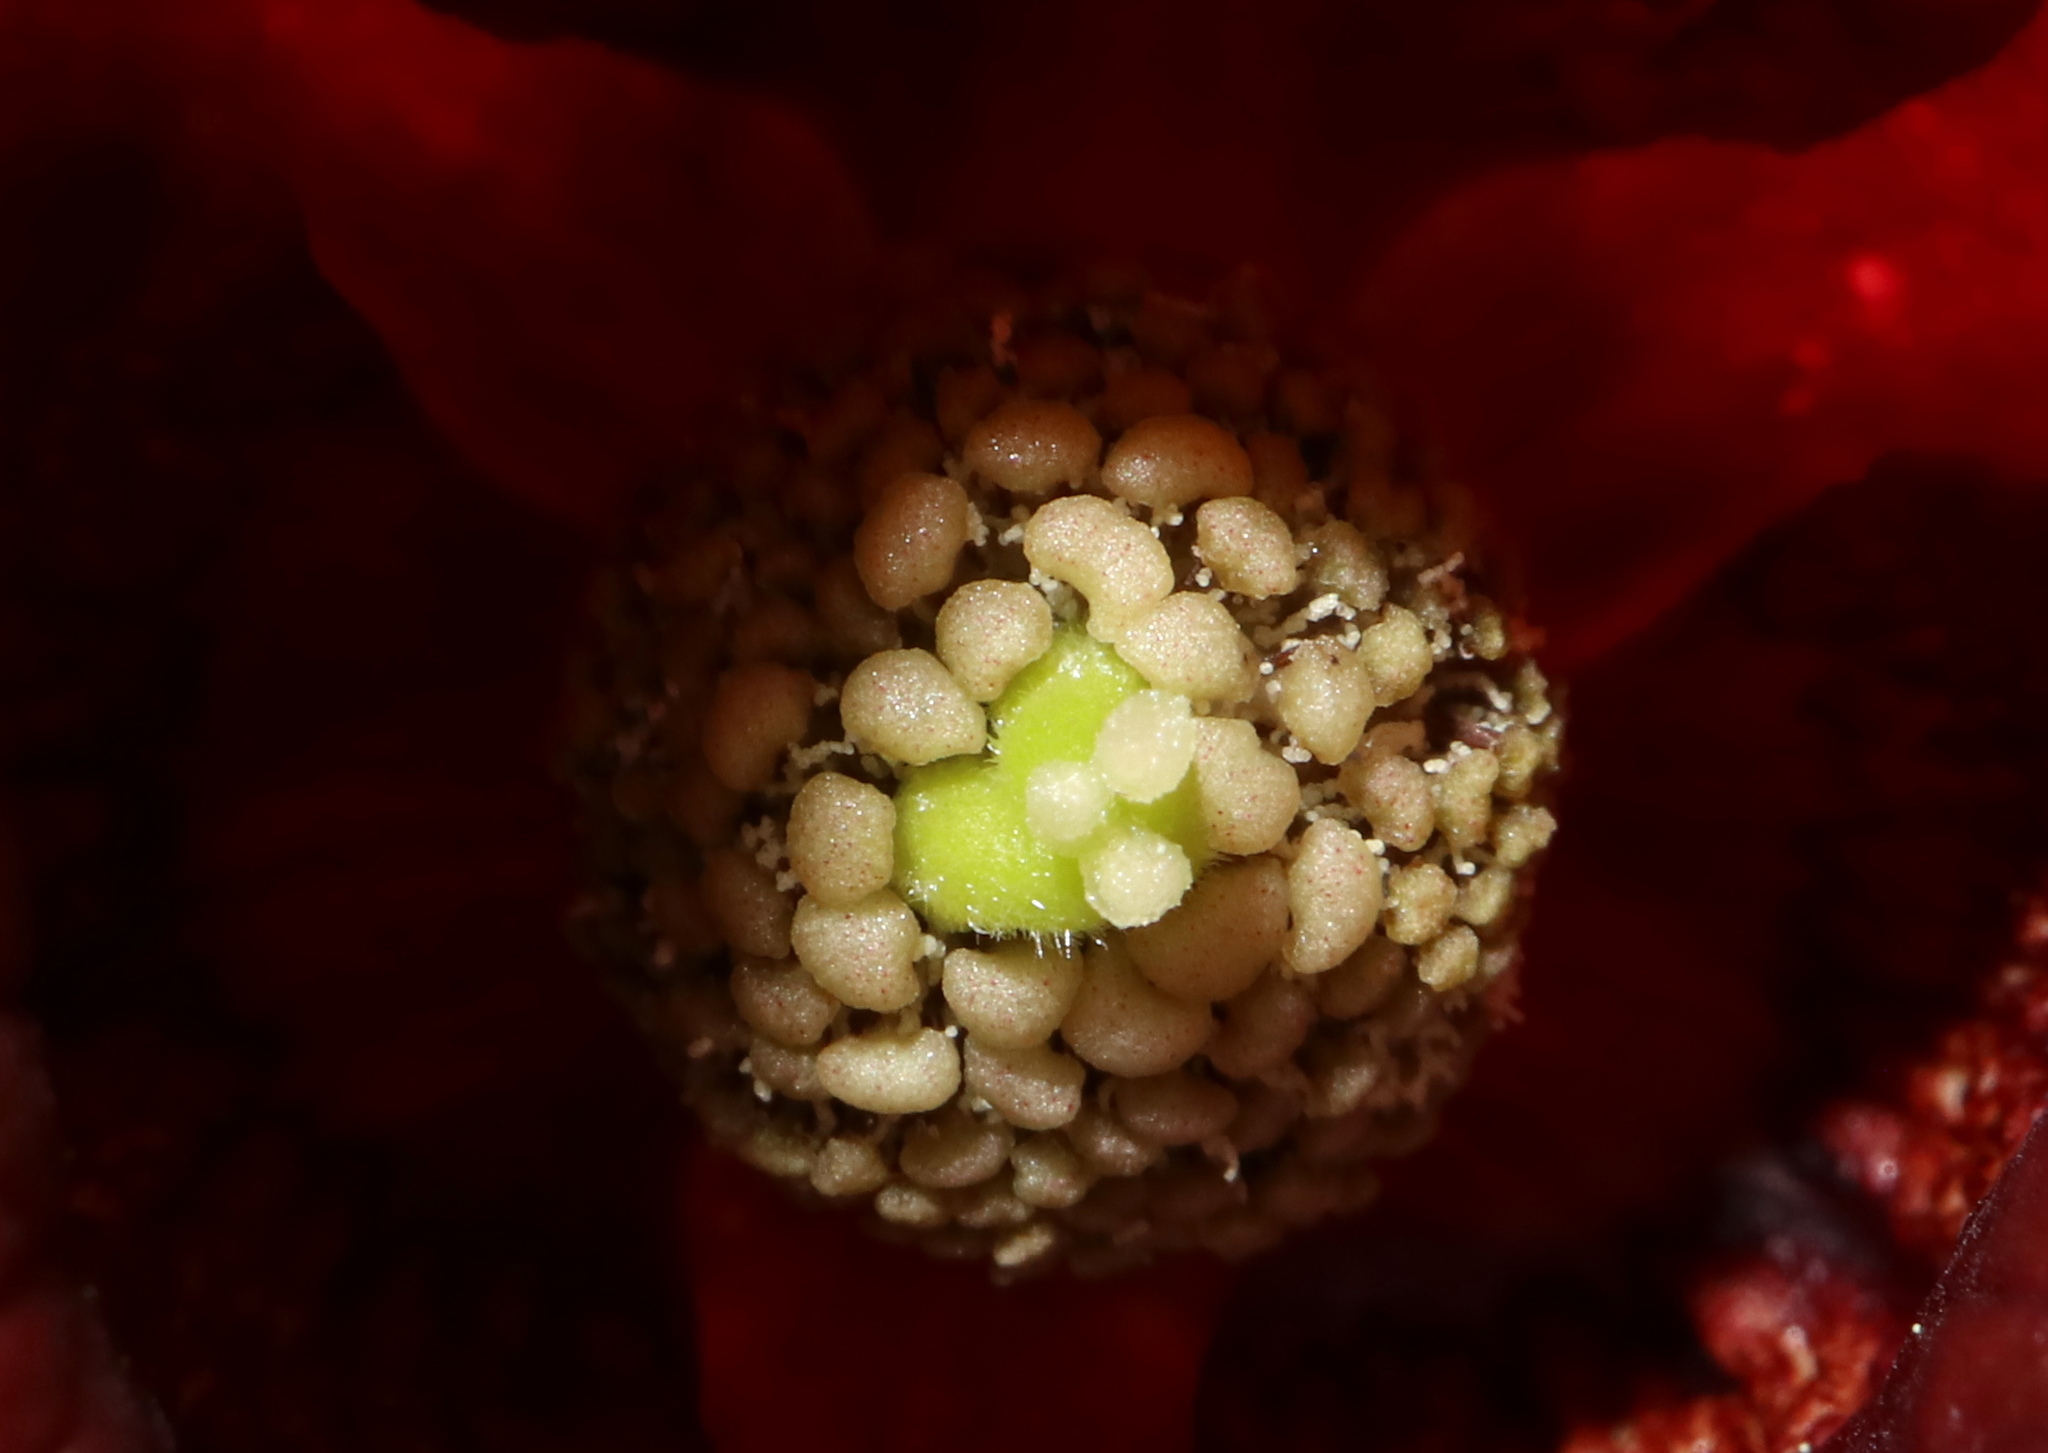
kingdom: Plantae
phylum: Tracheophyta
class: Magnoliopsida
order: Magnoliales
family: Annonaceae
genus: Asimina
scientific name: Asimina triloba
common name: Dog-banana
